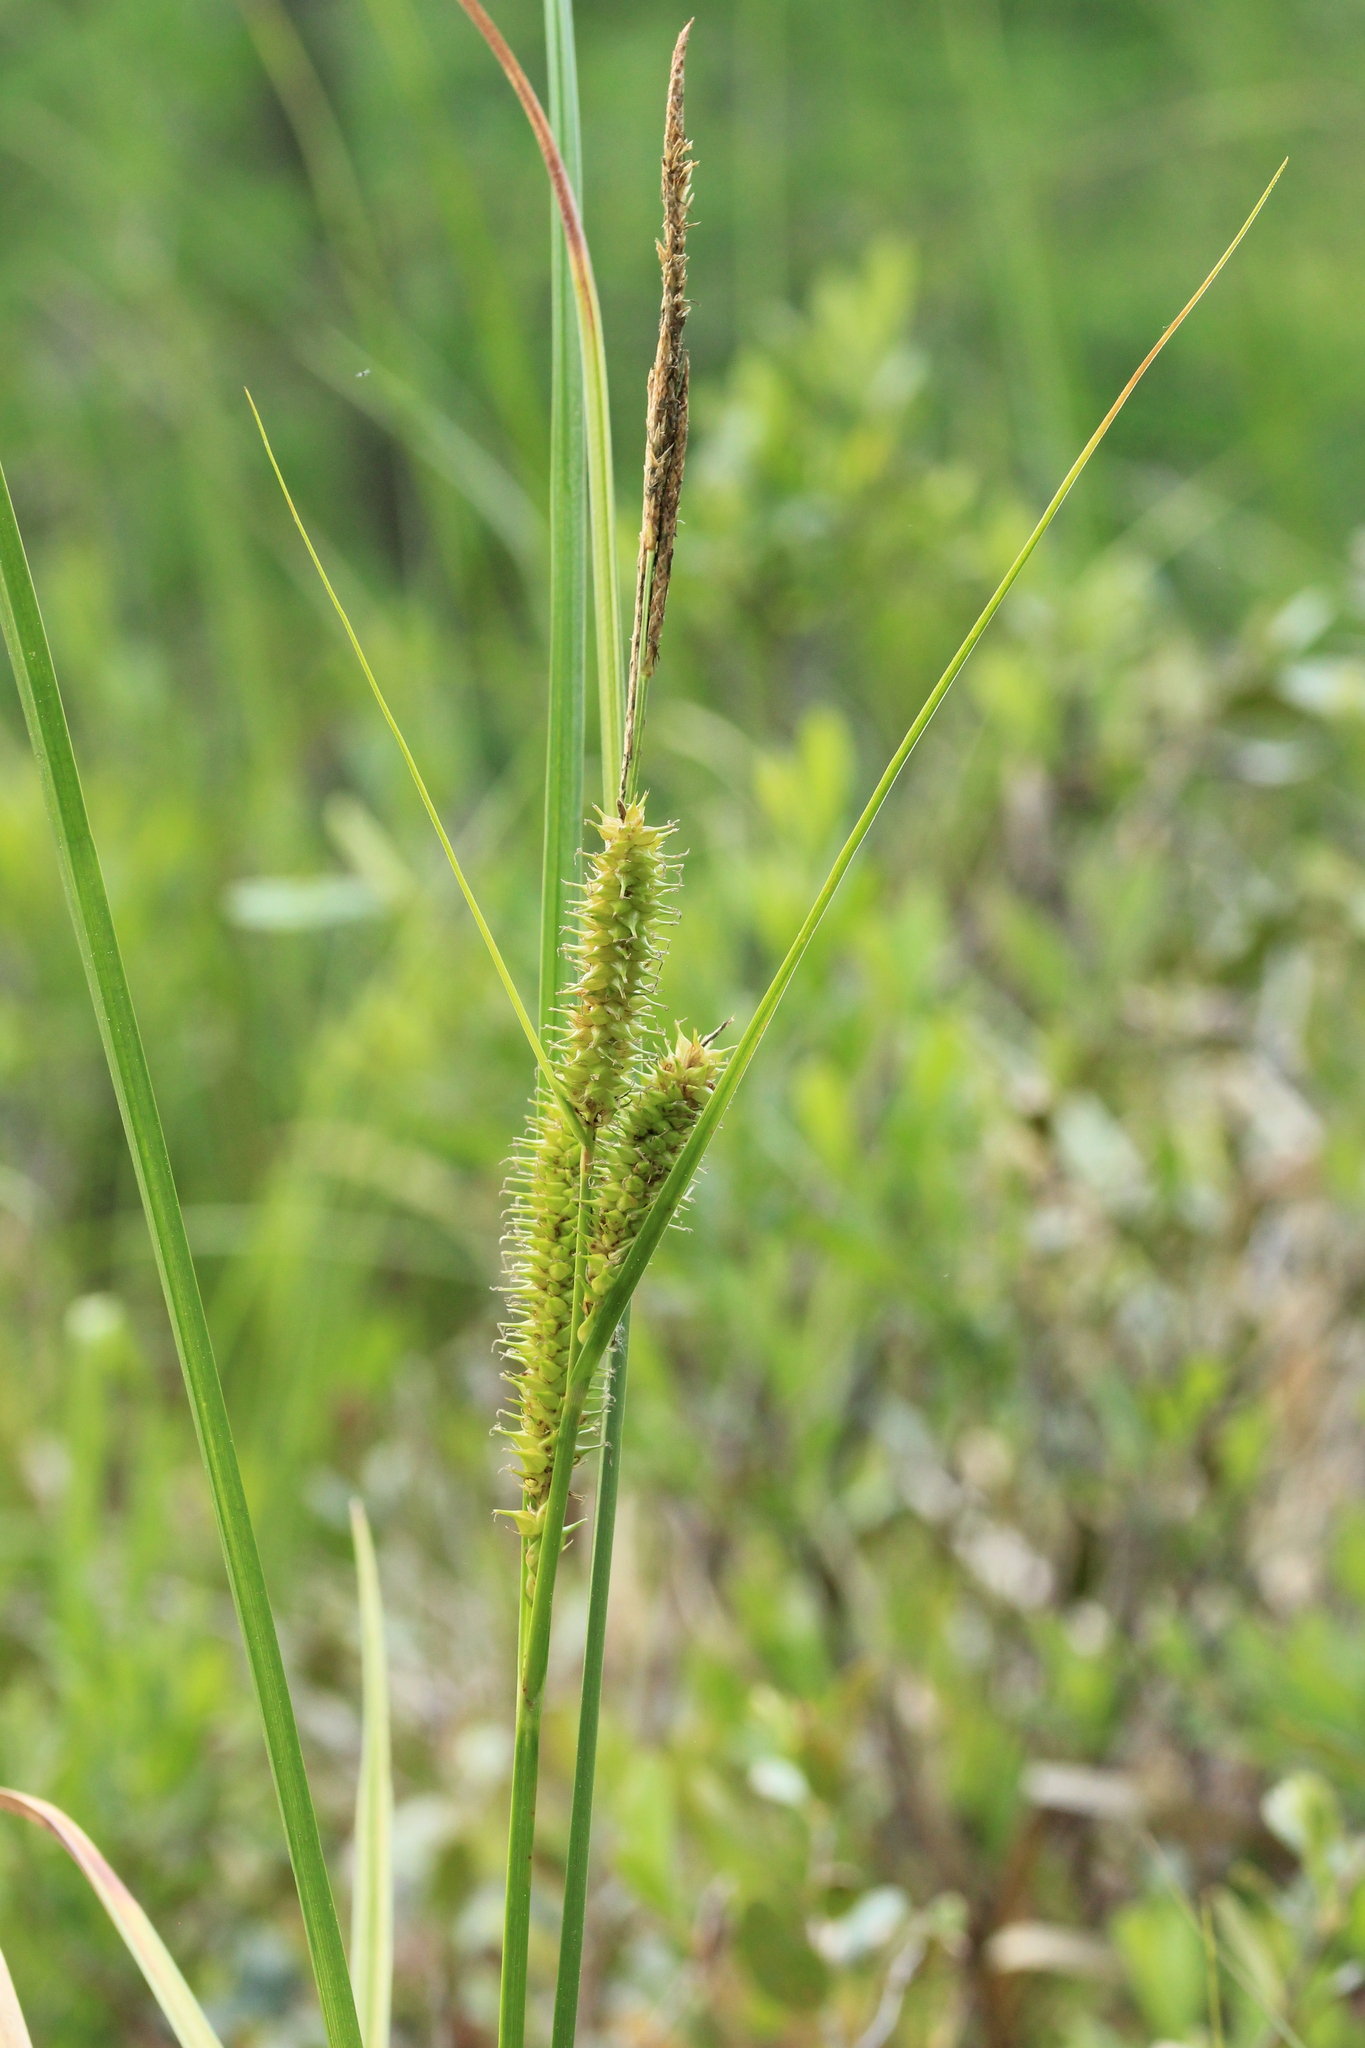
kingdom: Plantae
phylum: Tracheophyta
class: Liliopsida
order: Poales
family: Cyperaceae
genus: Carex
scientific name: Carex utriculata
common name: Beaked sedge
